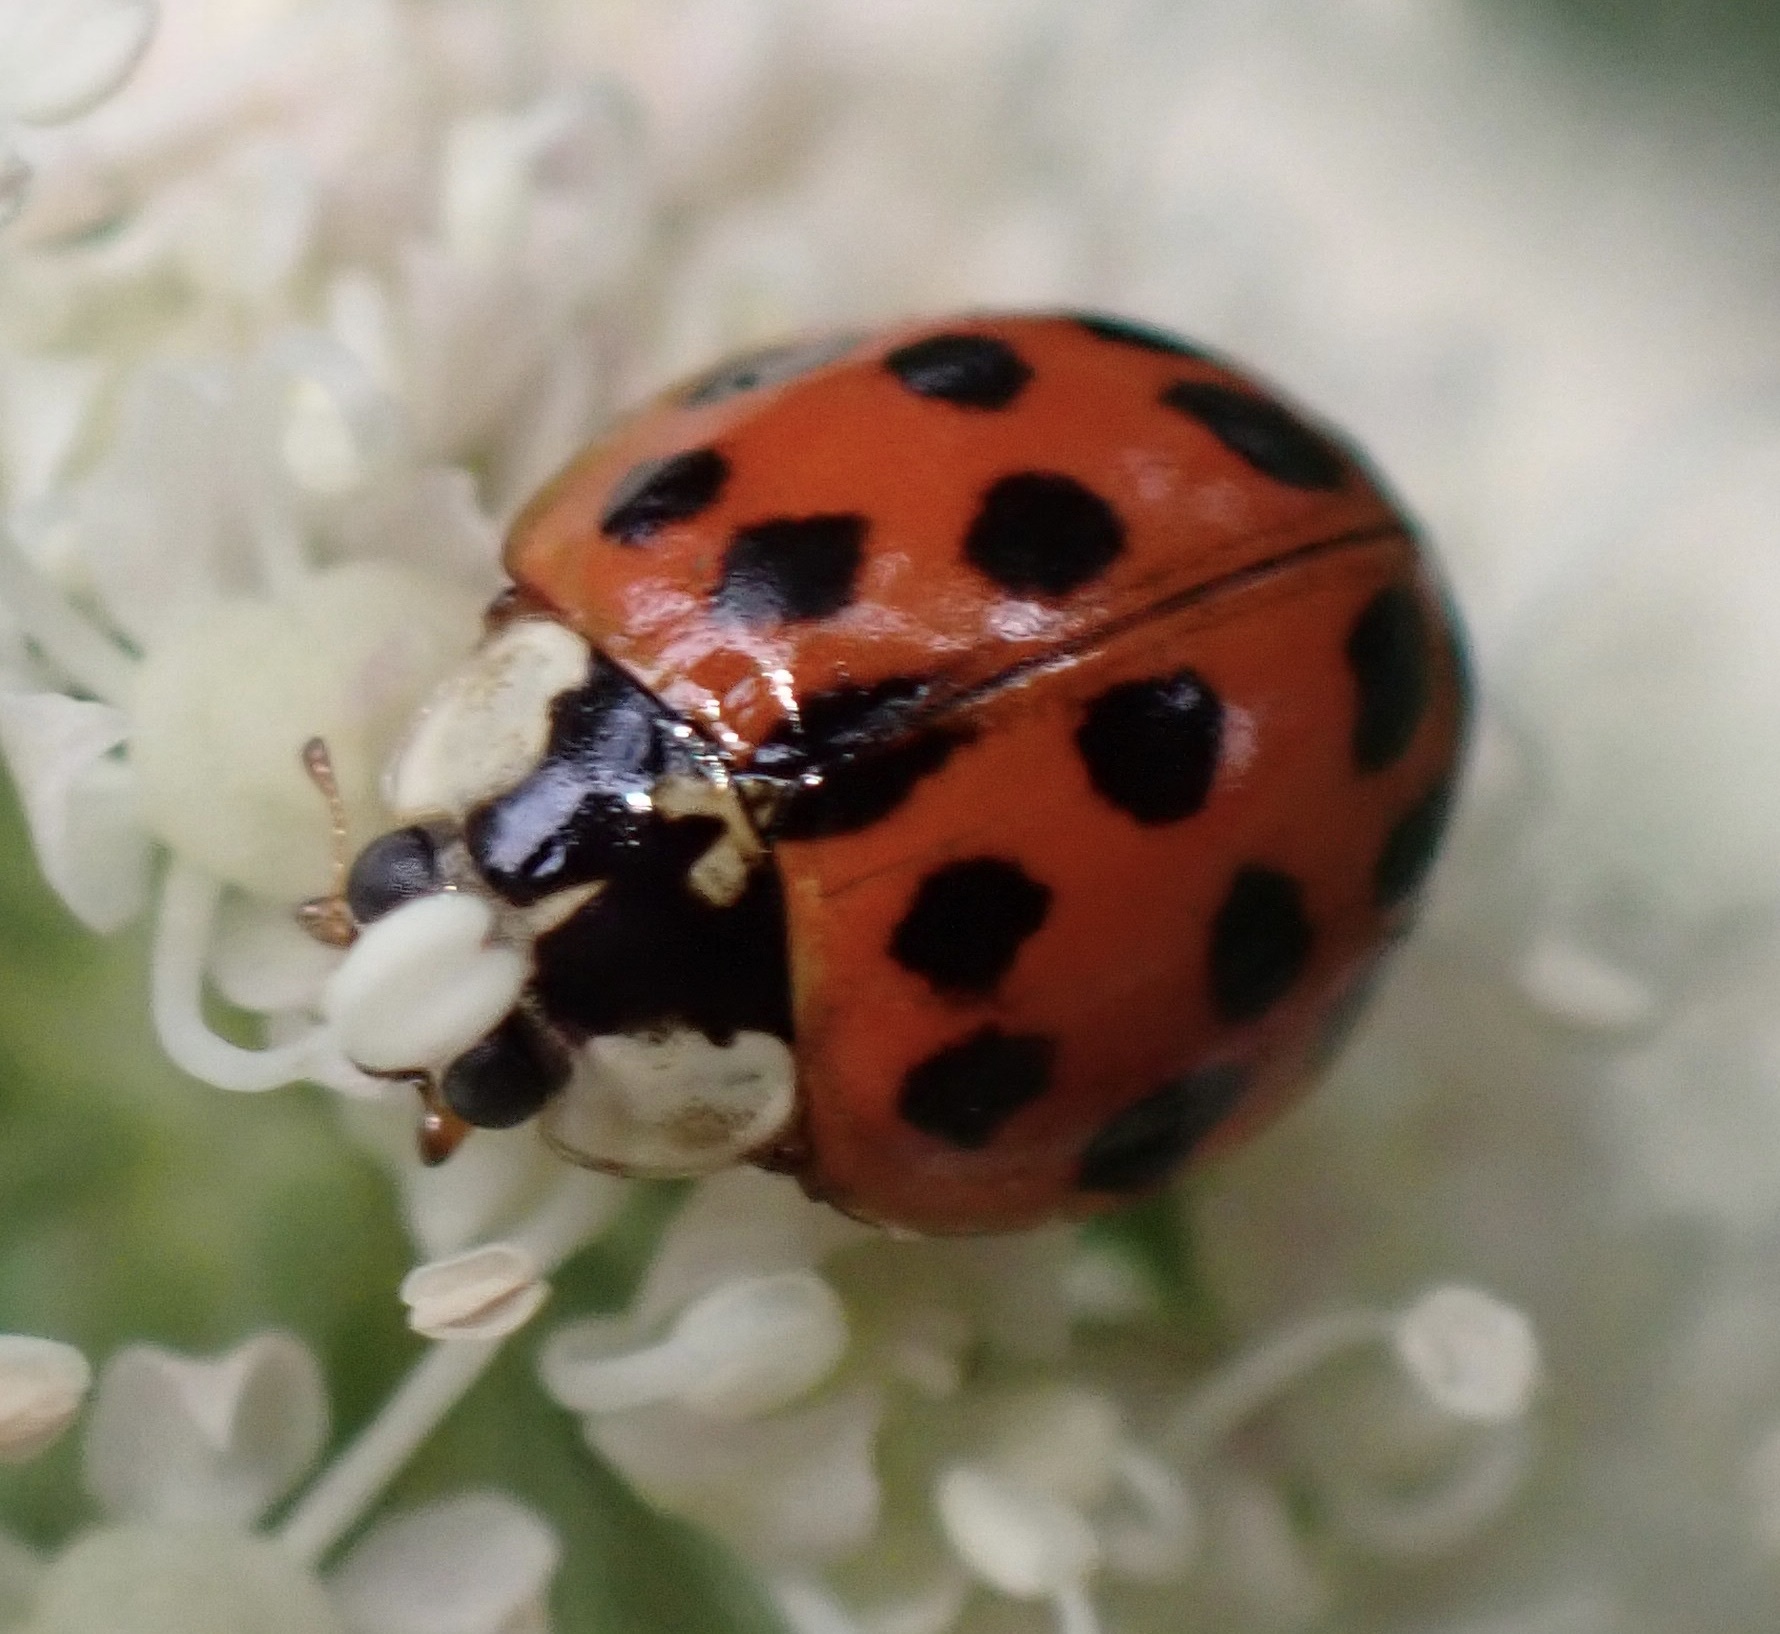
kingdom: Animalia
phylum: Arthropoda
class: Insecta
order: Coleoptera
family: Coccinellidae
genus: Harmonia
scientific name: Harmonia axyridis
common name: Harlequin ladybird
